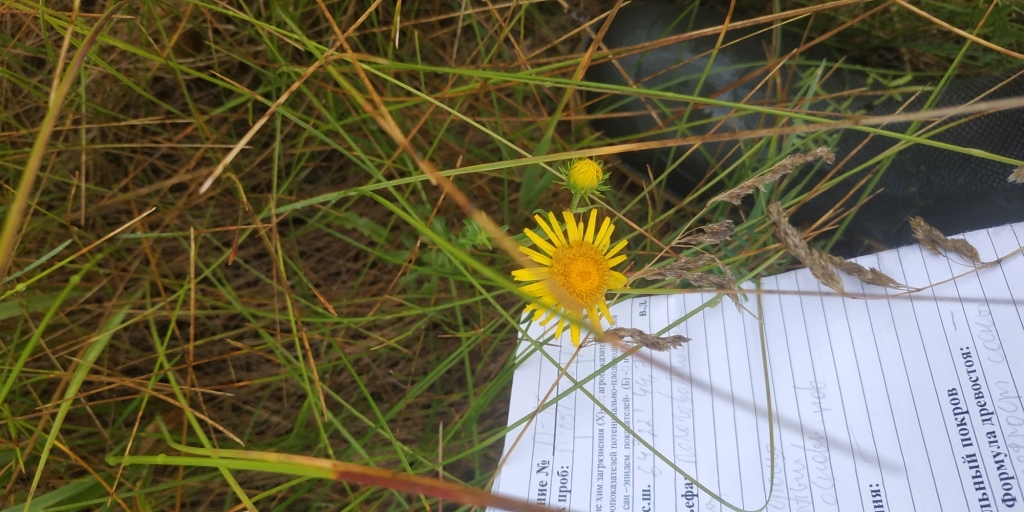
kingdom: Plantae
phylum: Tracheophyta
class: Magnoliopsida
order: Asterales
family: Asteraceae
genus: Pentanema
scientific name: Pentanema britannicum
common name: British elecampane
